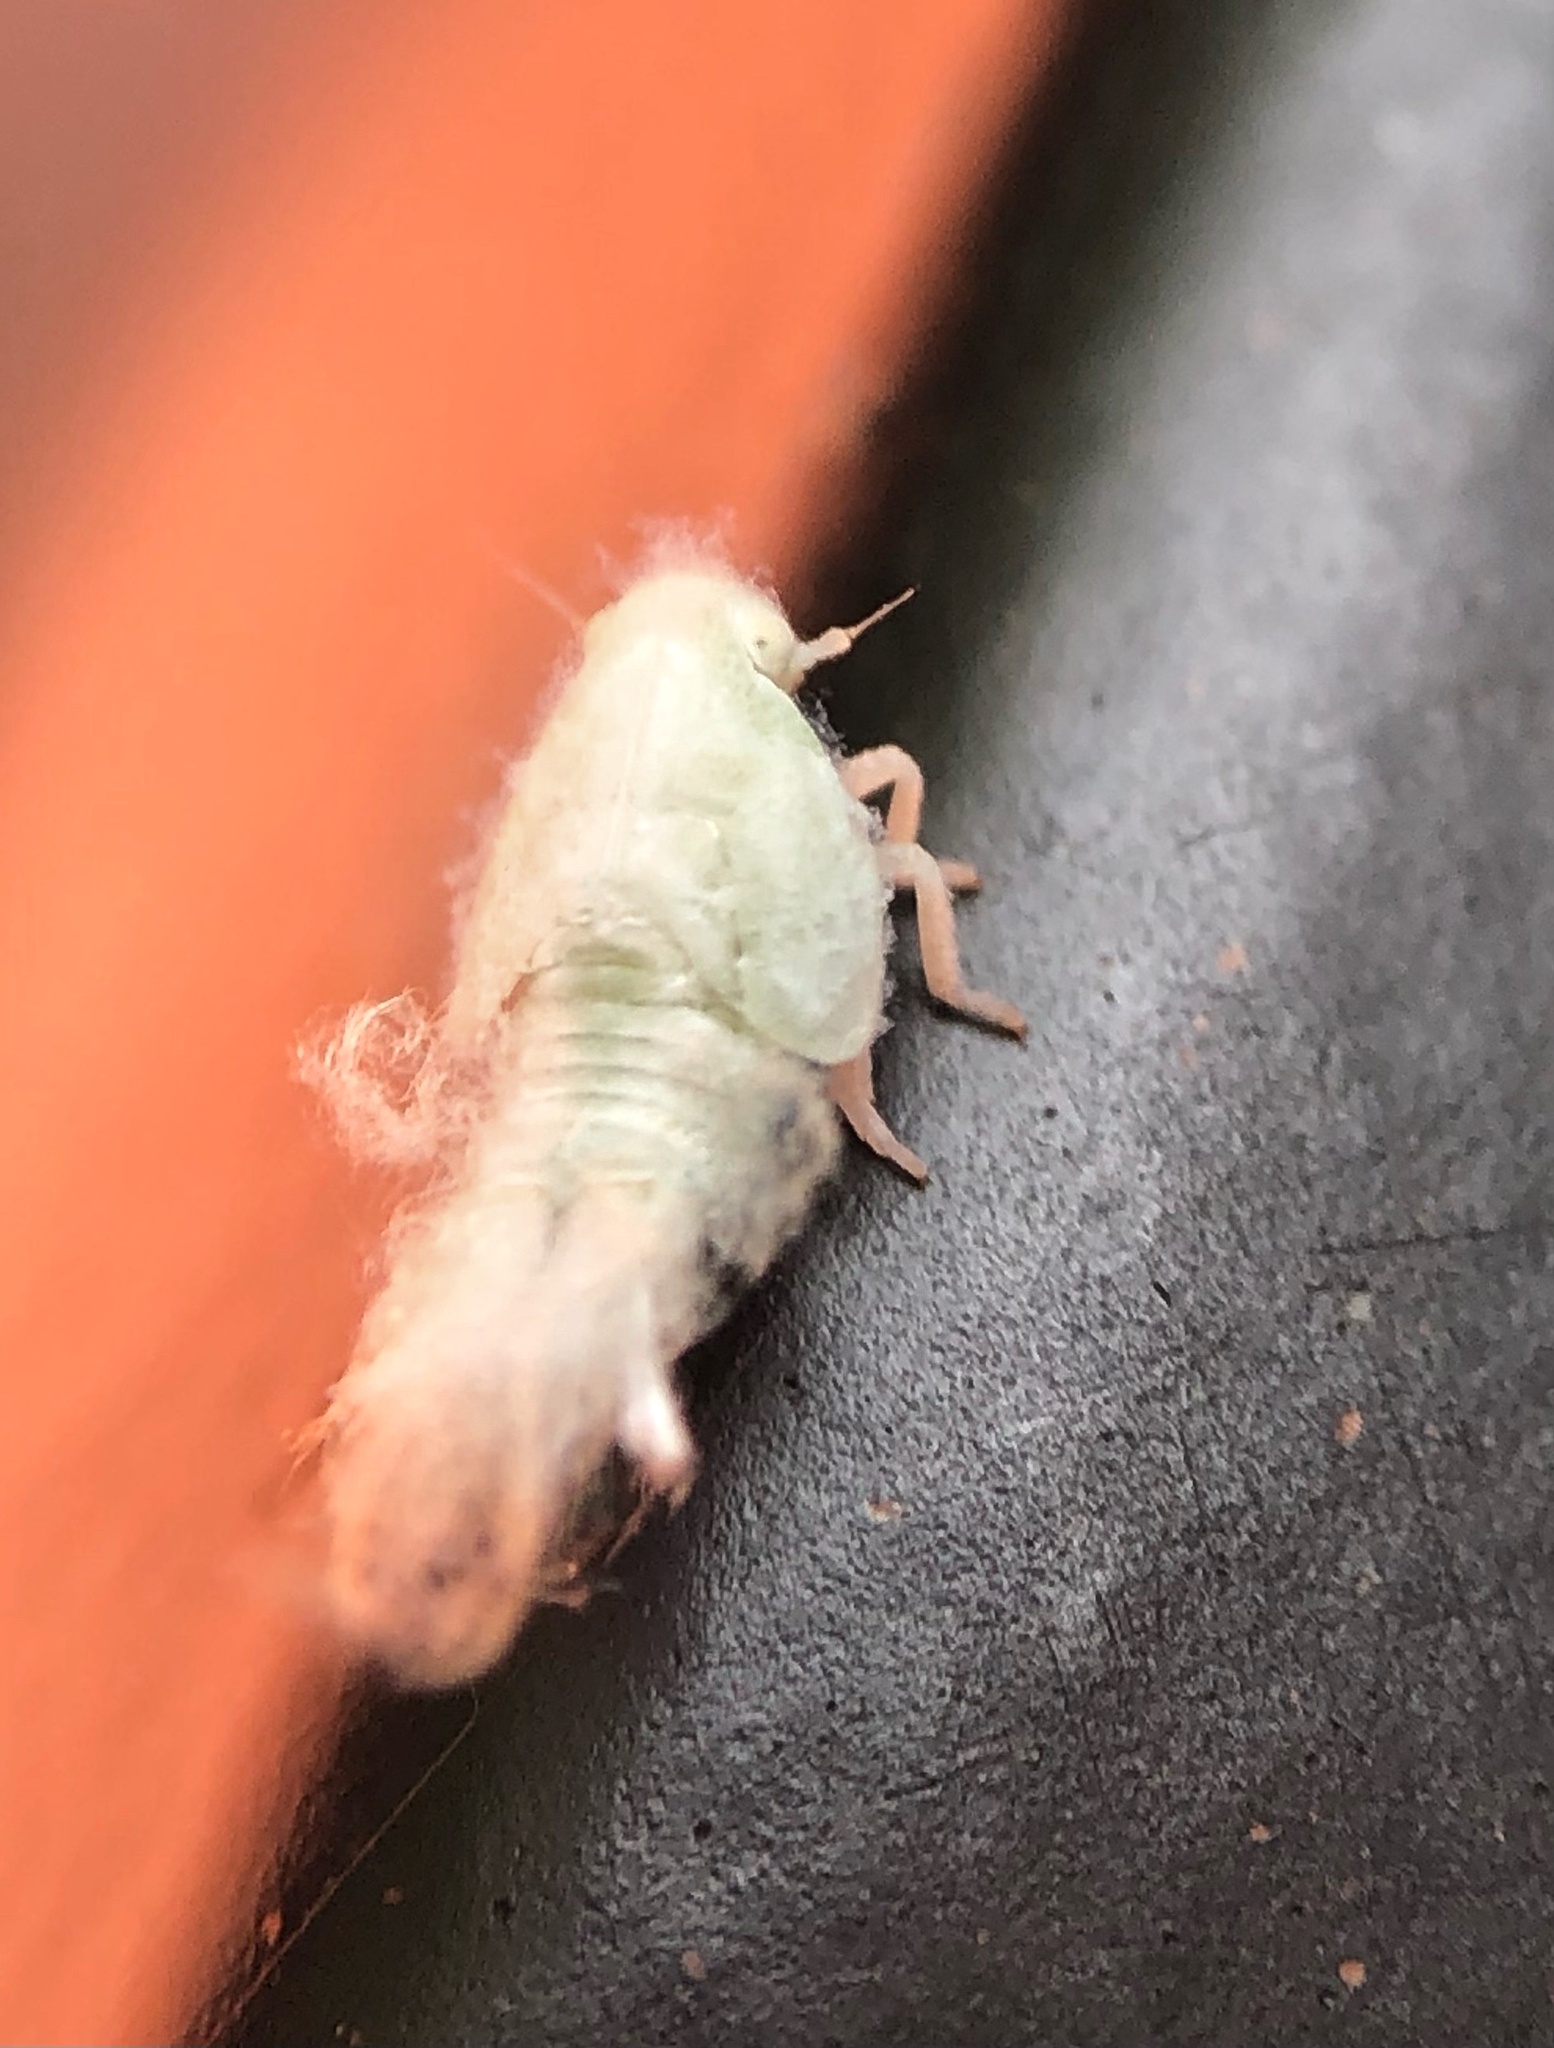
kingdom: Animalia
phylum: Arthropoda
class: Insecta
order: Hemiptera
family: Flatidae
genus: Metcalfa
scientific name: Metcalfa pruinosa
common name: Citrus flatid planthopper
